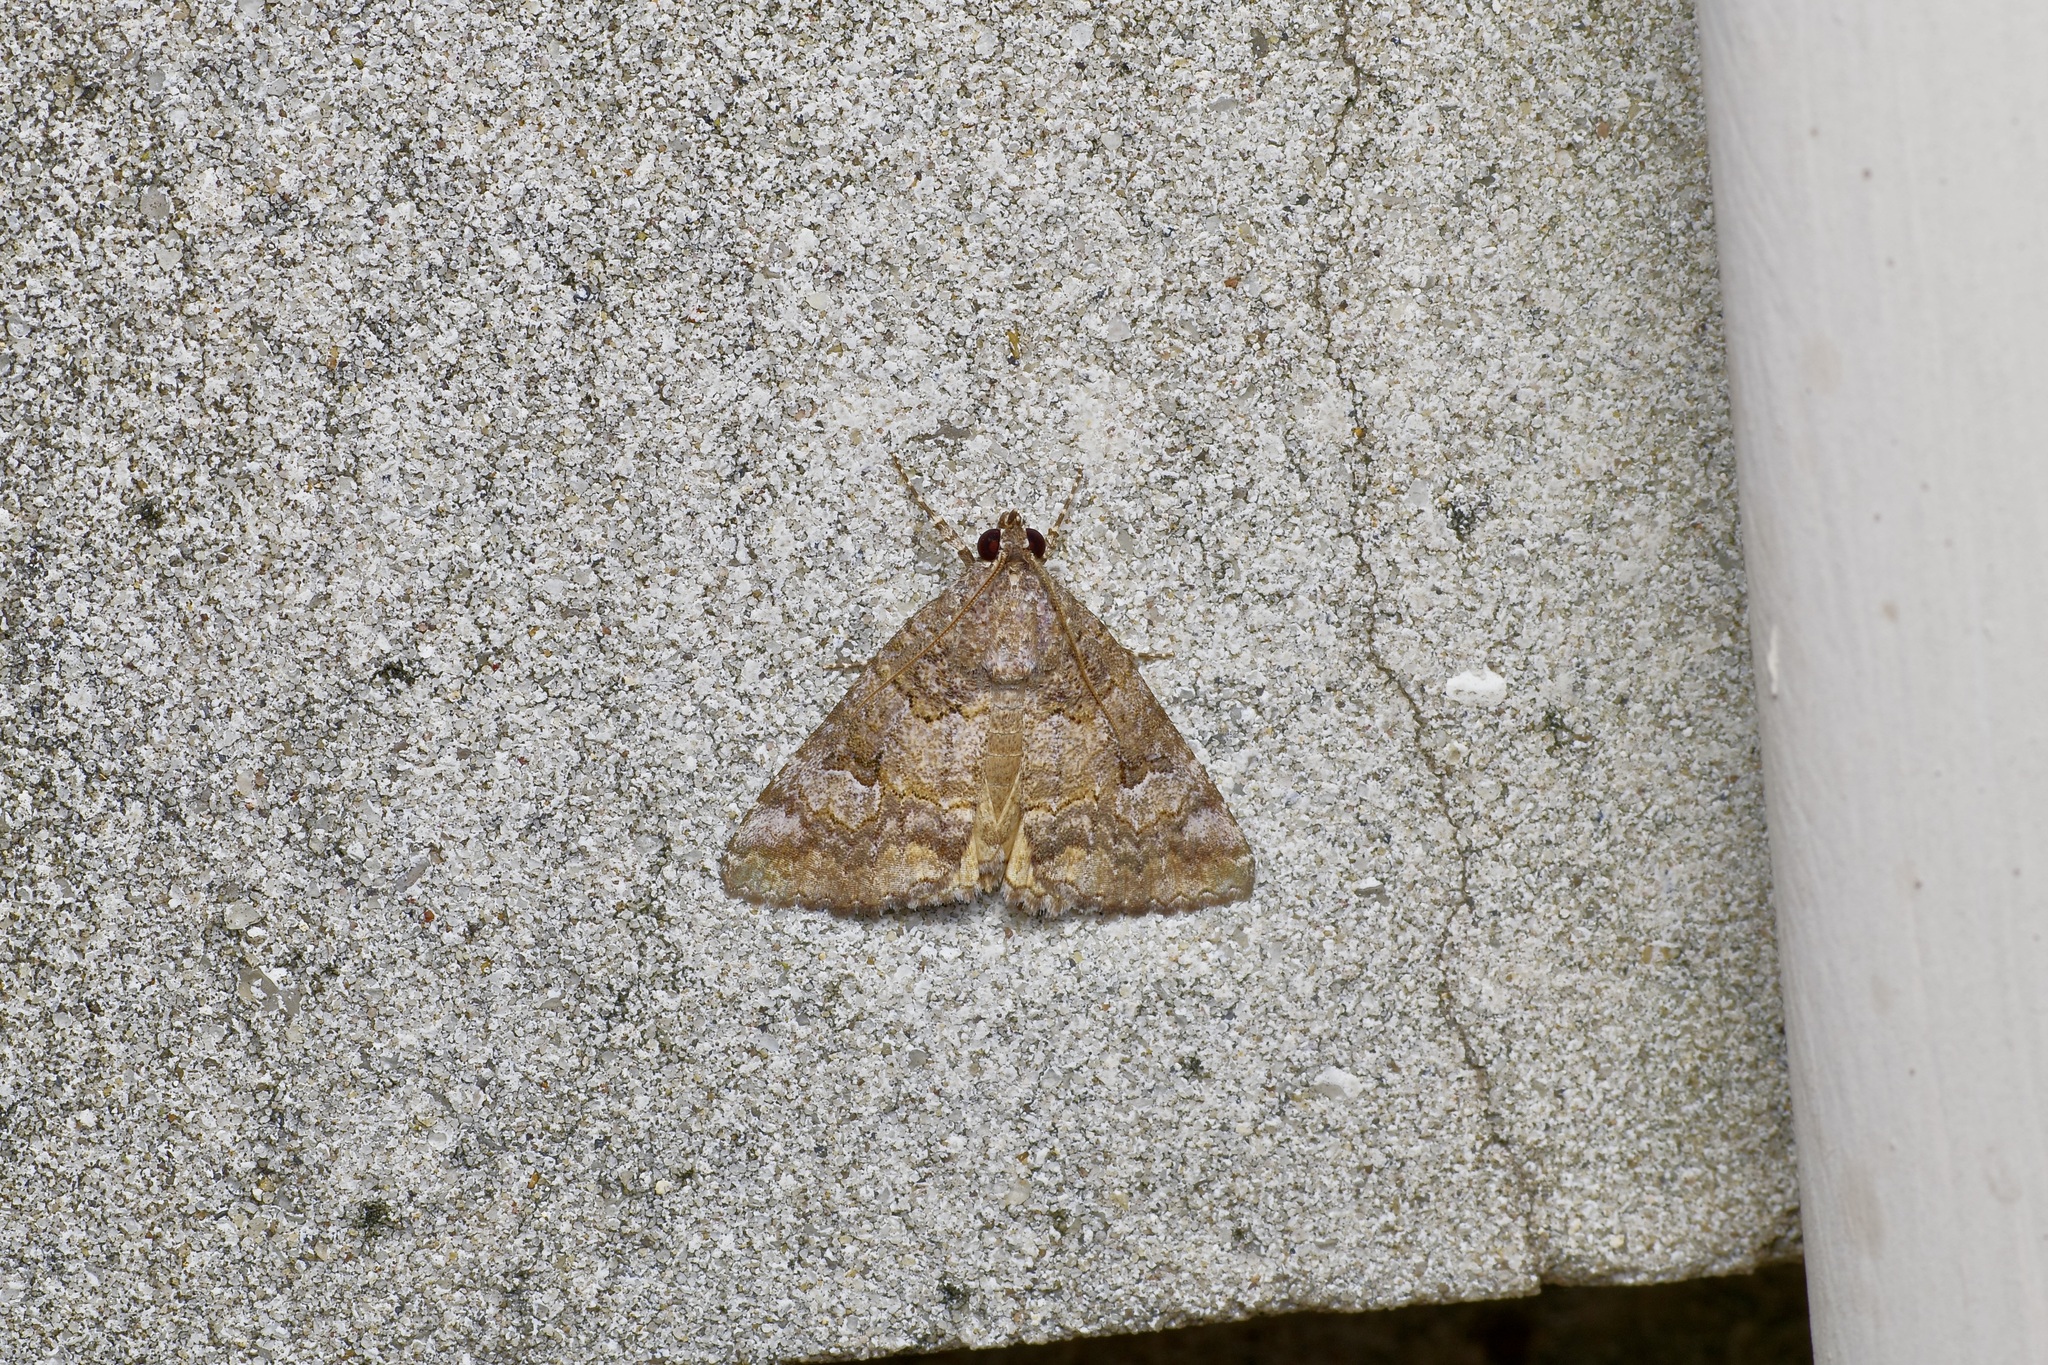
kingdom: Animalia
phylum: Arthropoda
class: Insecta
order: Lepidoptera
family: Erebidae
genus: Eubolina
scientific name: Eubolina impartialis
